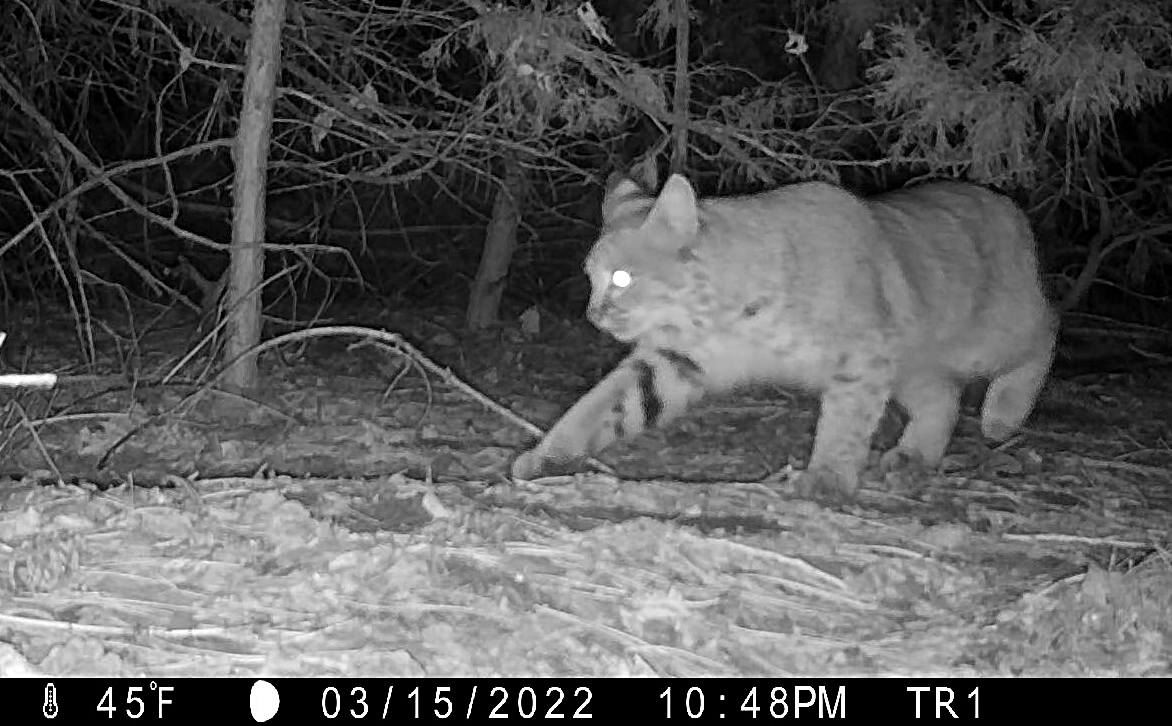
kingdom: Animalia
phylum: Chordata
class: Mammalia
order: Carnivora
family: Felidae
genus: Lynx
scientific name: Lynx rufus
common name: Bobcat
